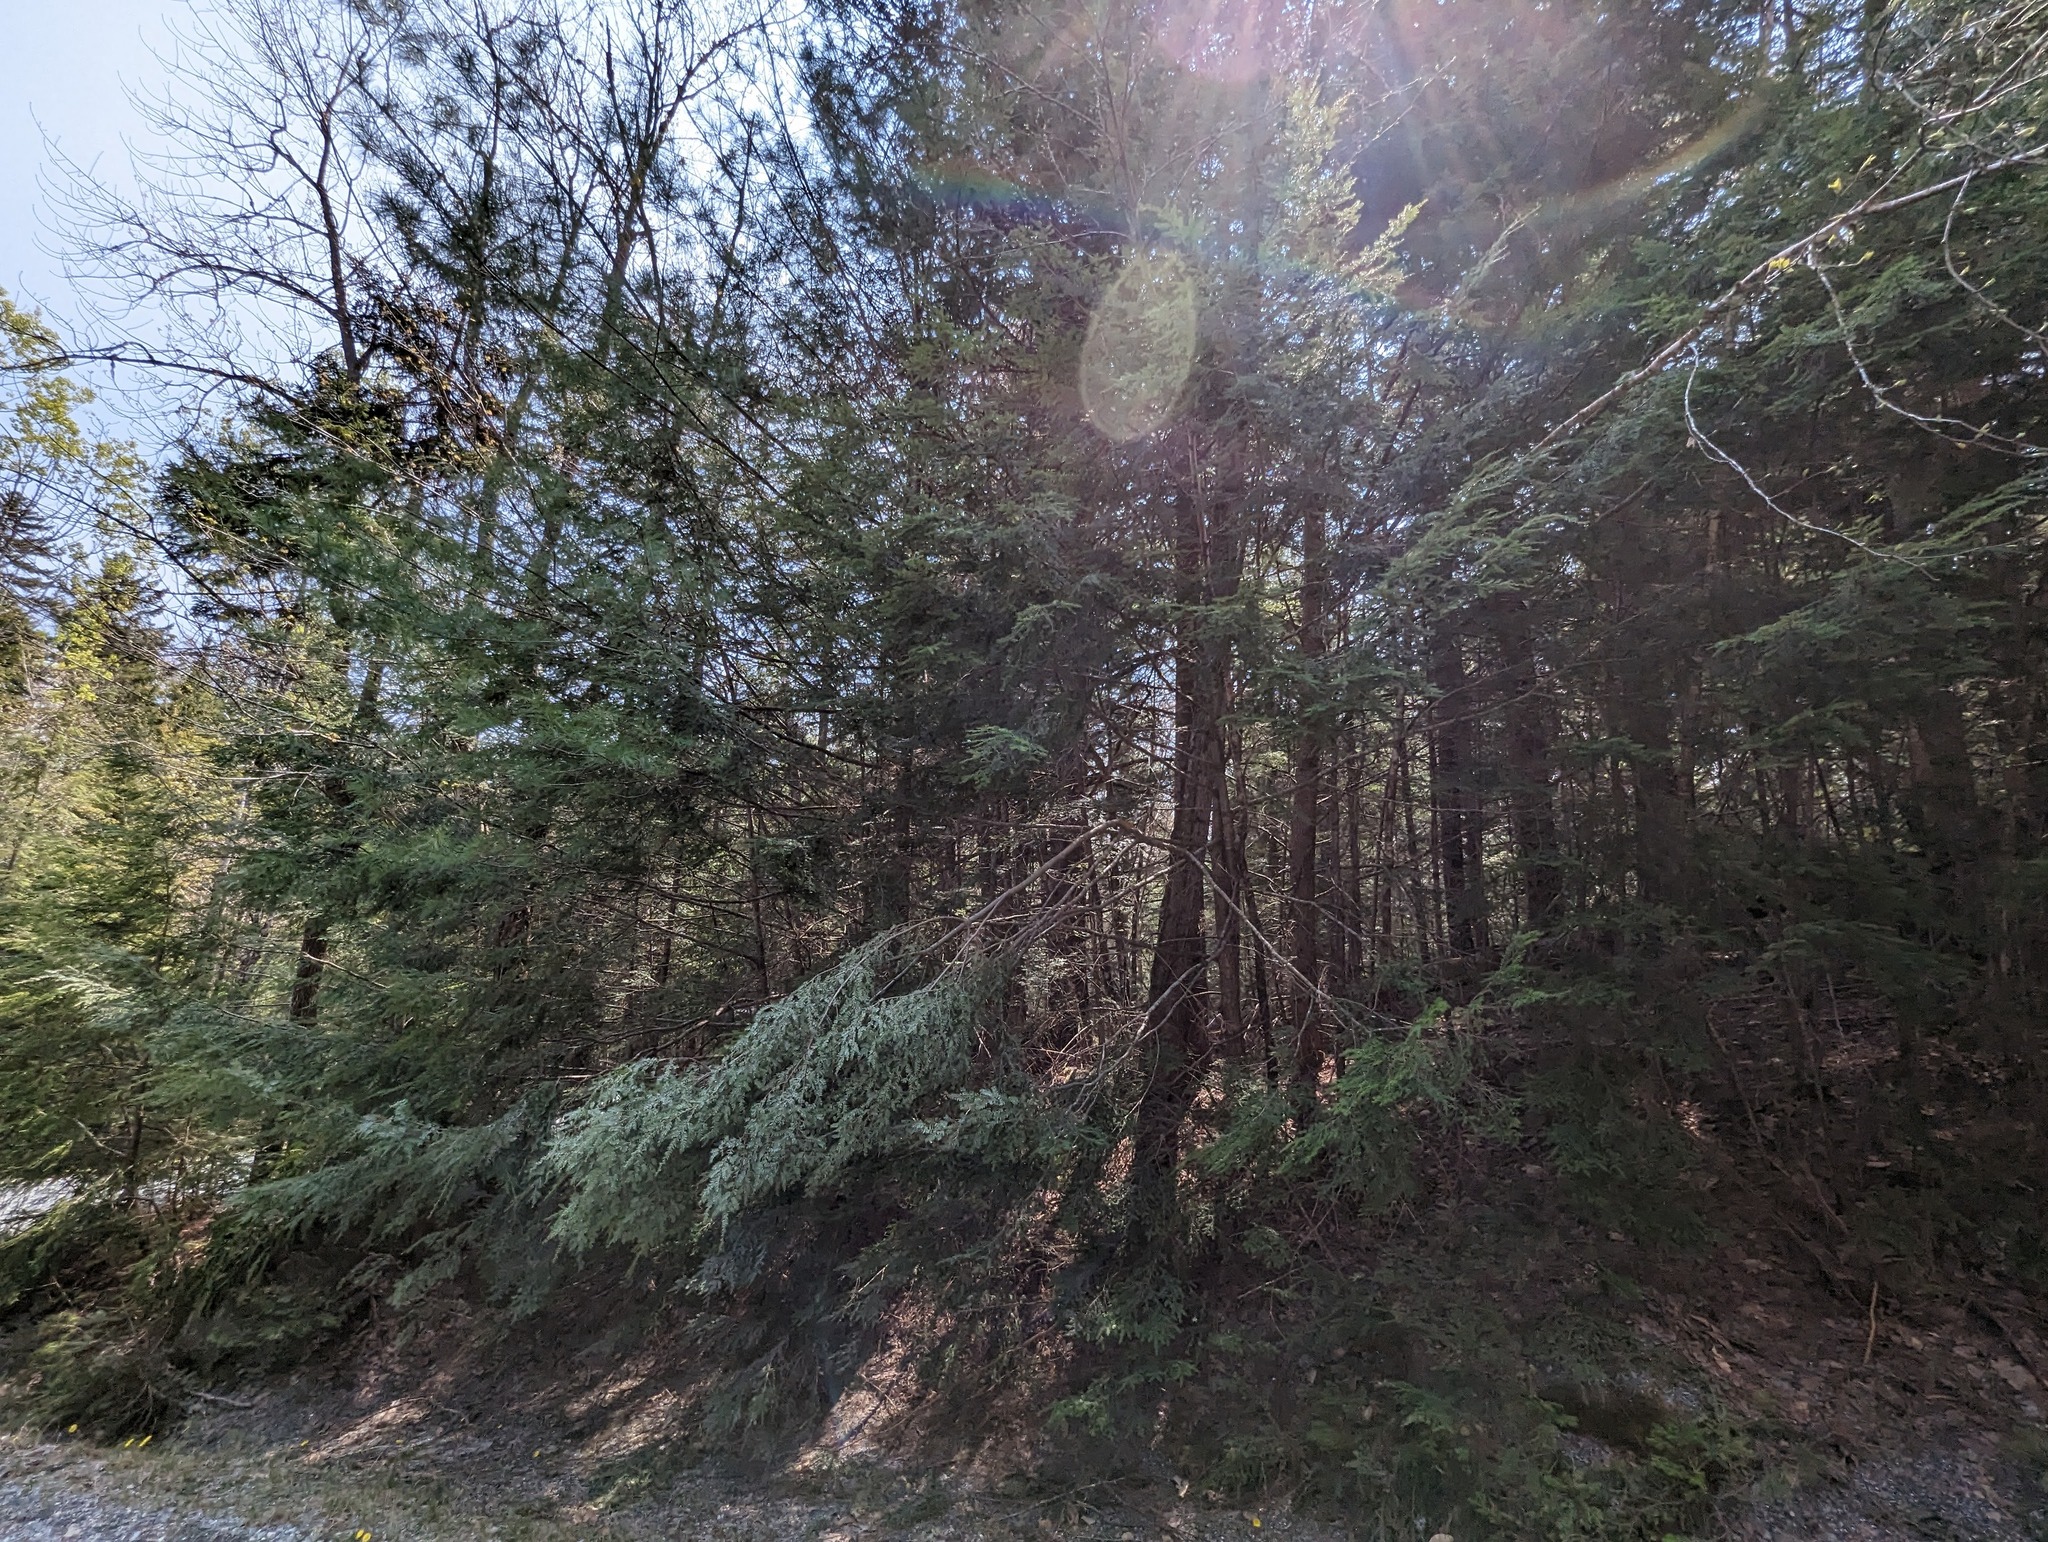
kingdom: Plantae
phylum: Tracheophyta
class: Pinopsida
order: Pinales
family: Pinaceae
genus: Tsuga
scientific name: Tsuga canadensis
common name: Eastern hemlock
